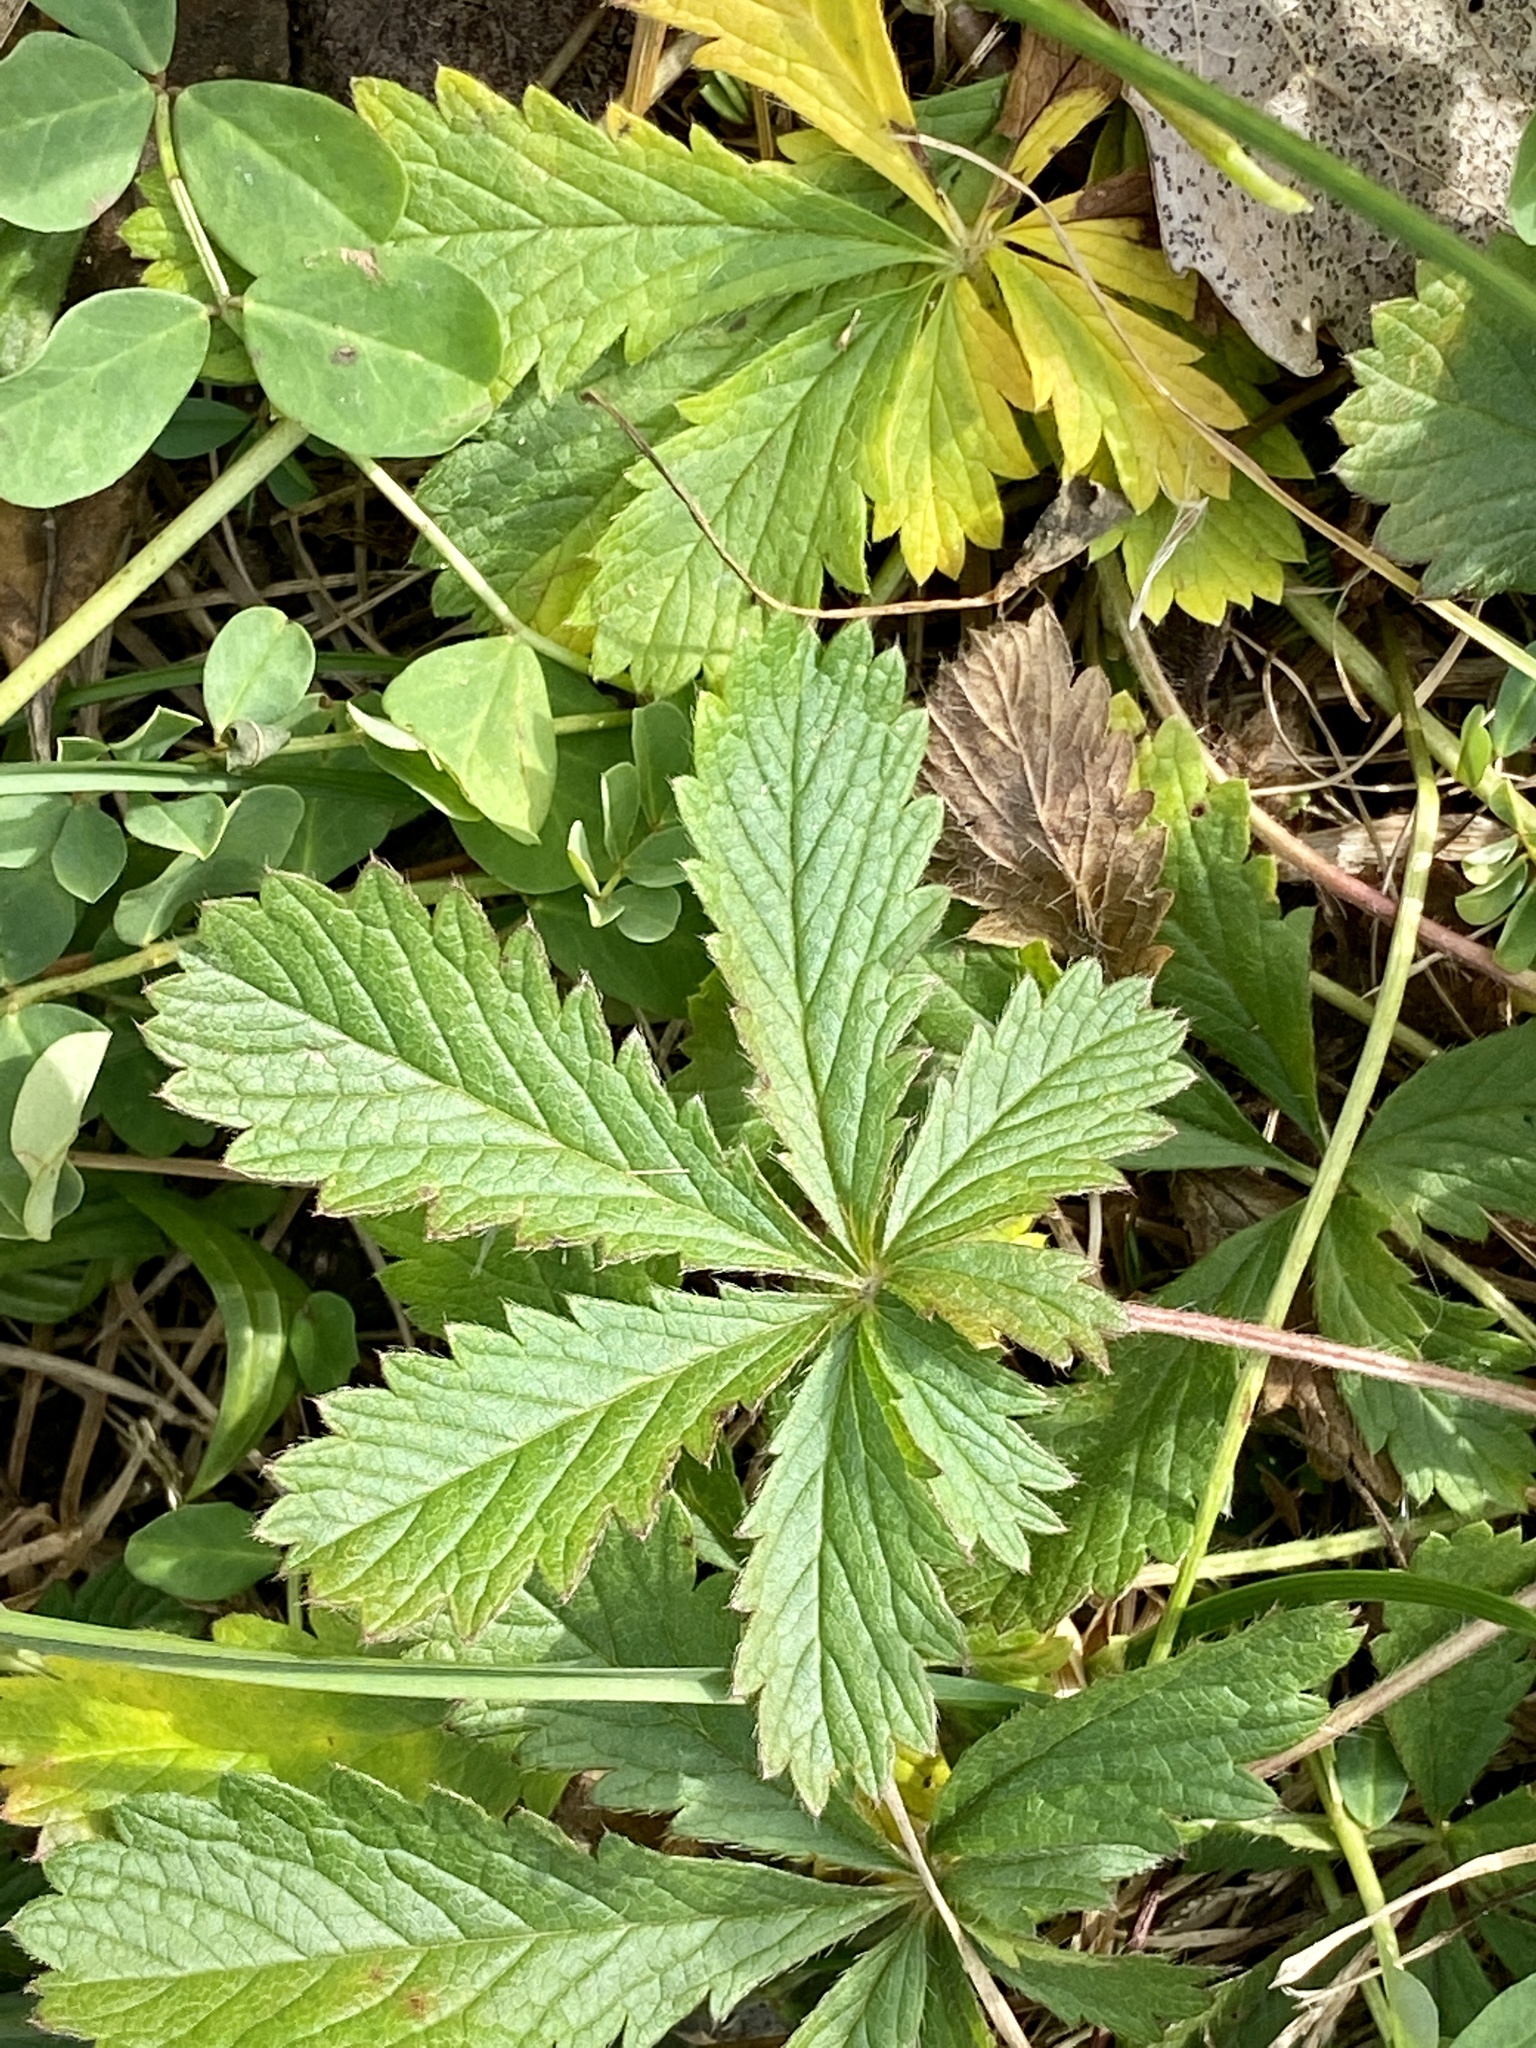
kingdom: Plantae
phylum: Tracheophyta
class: Magnoliopsida
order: Rosales
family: Rosaceae
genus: Potentilla
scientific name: Potentilla recta
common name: Sulphur cinquefoil
